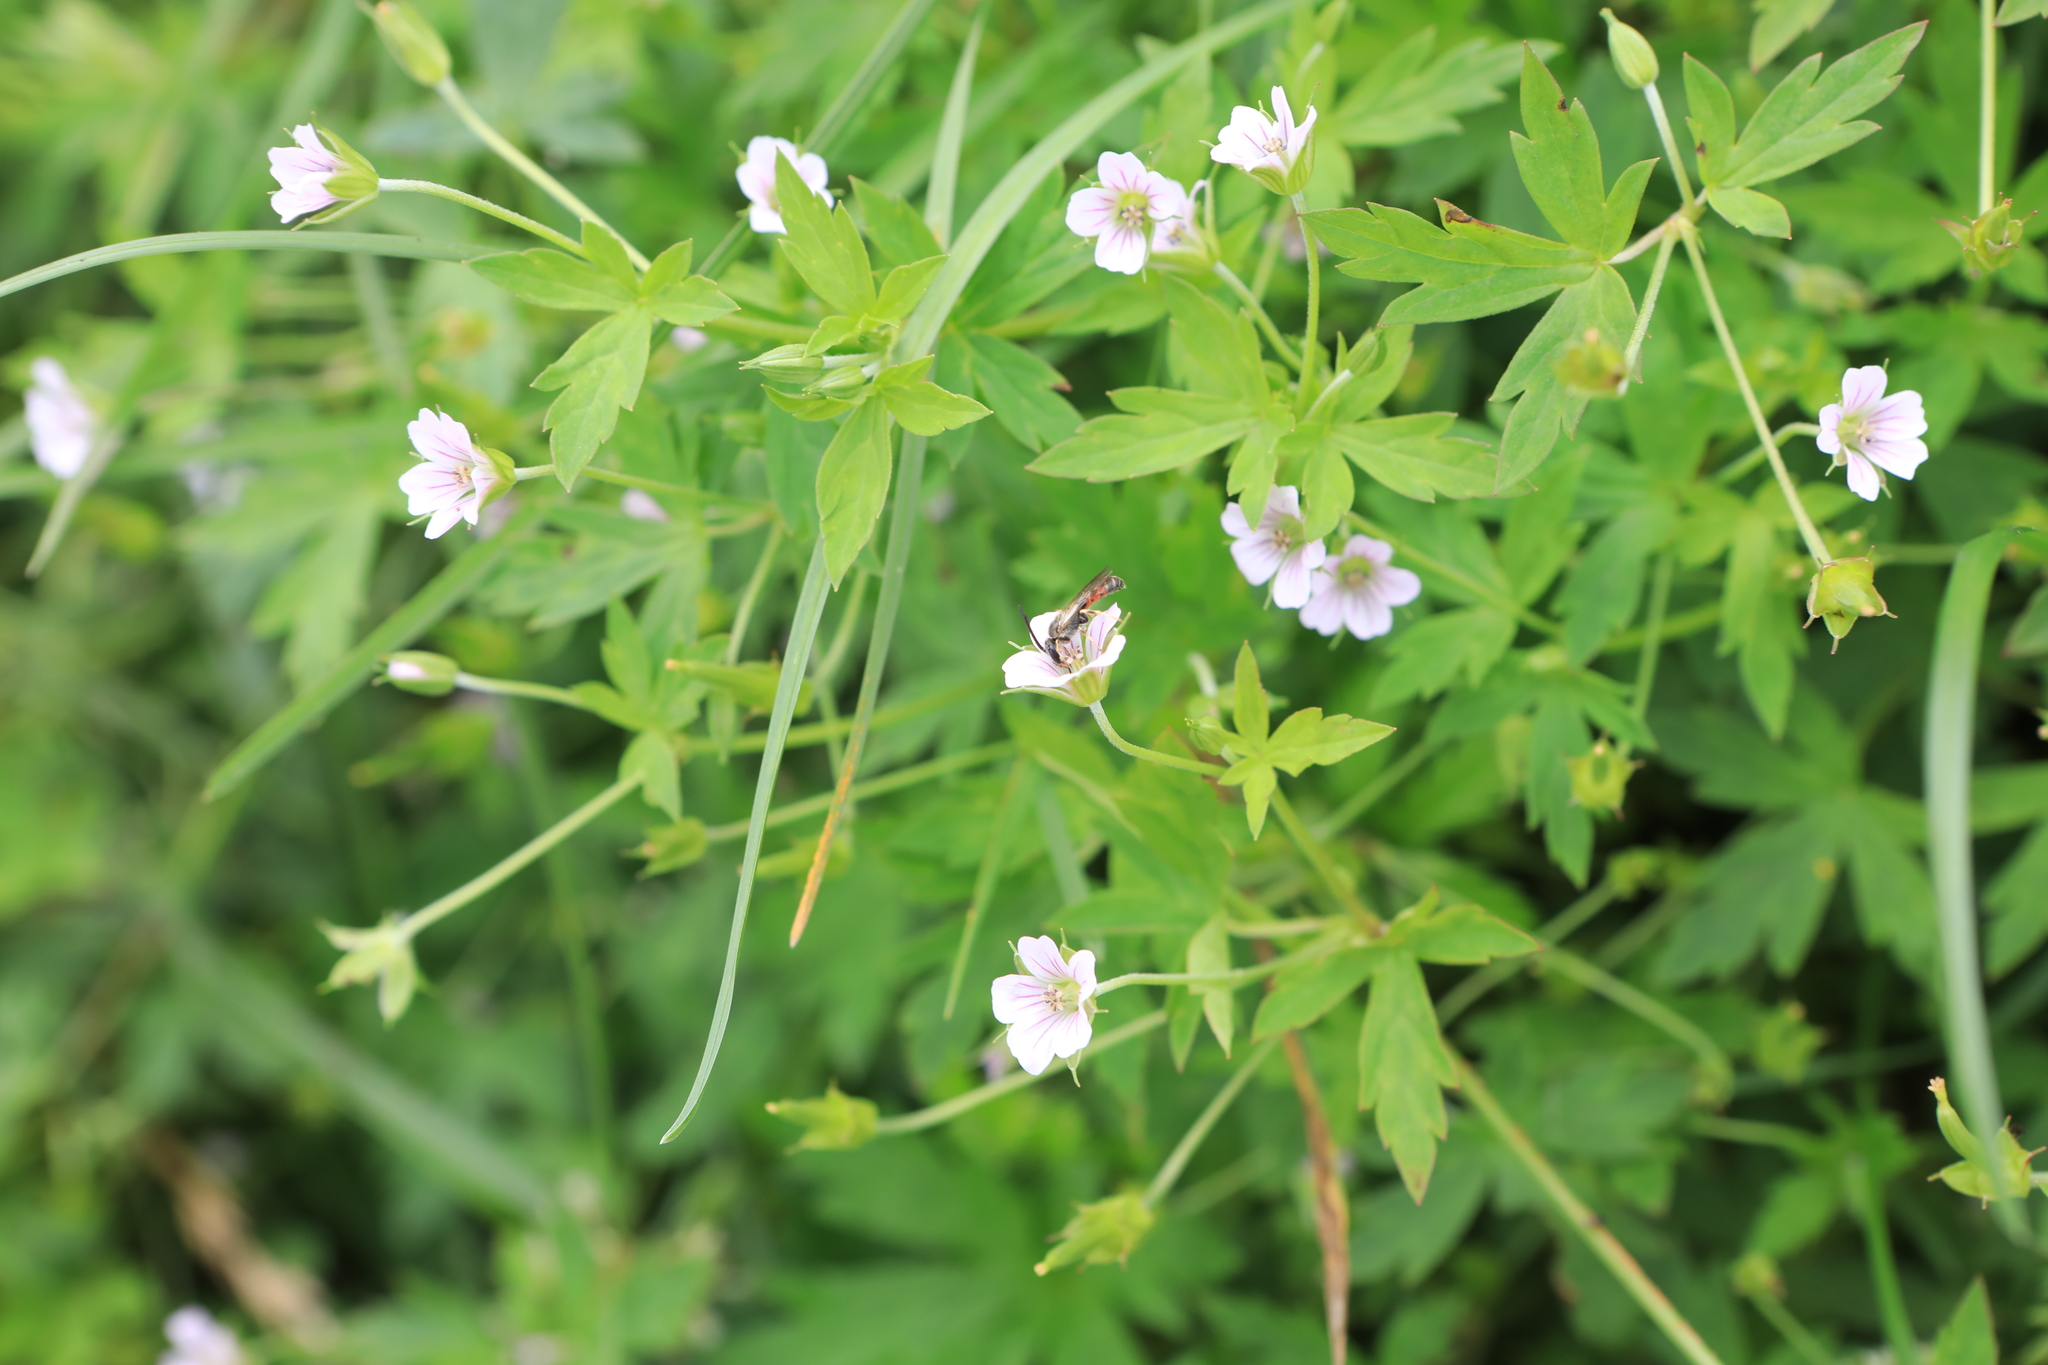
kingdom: Plantae
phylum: Tracheophyta
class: Magnoliopsida
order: Geraniales
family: Geraniaceae
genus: Geranium
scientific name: Geranium sibiricum
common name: Siberian crane's-bill
